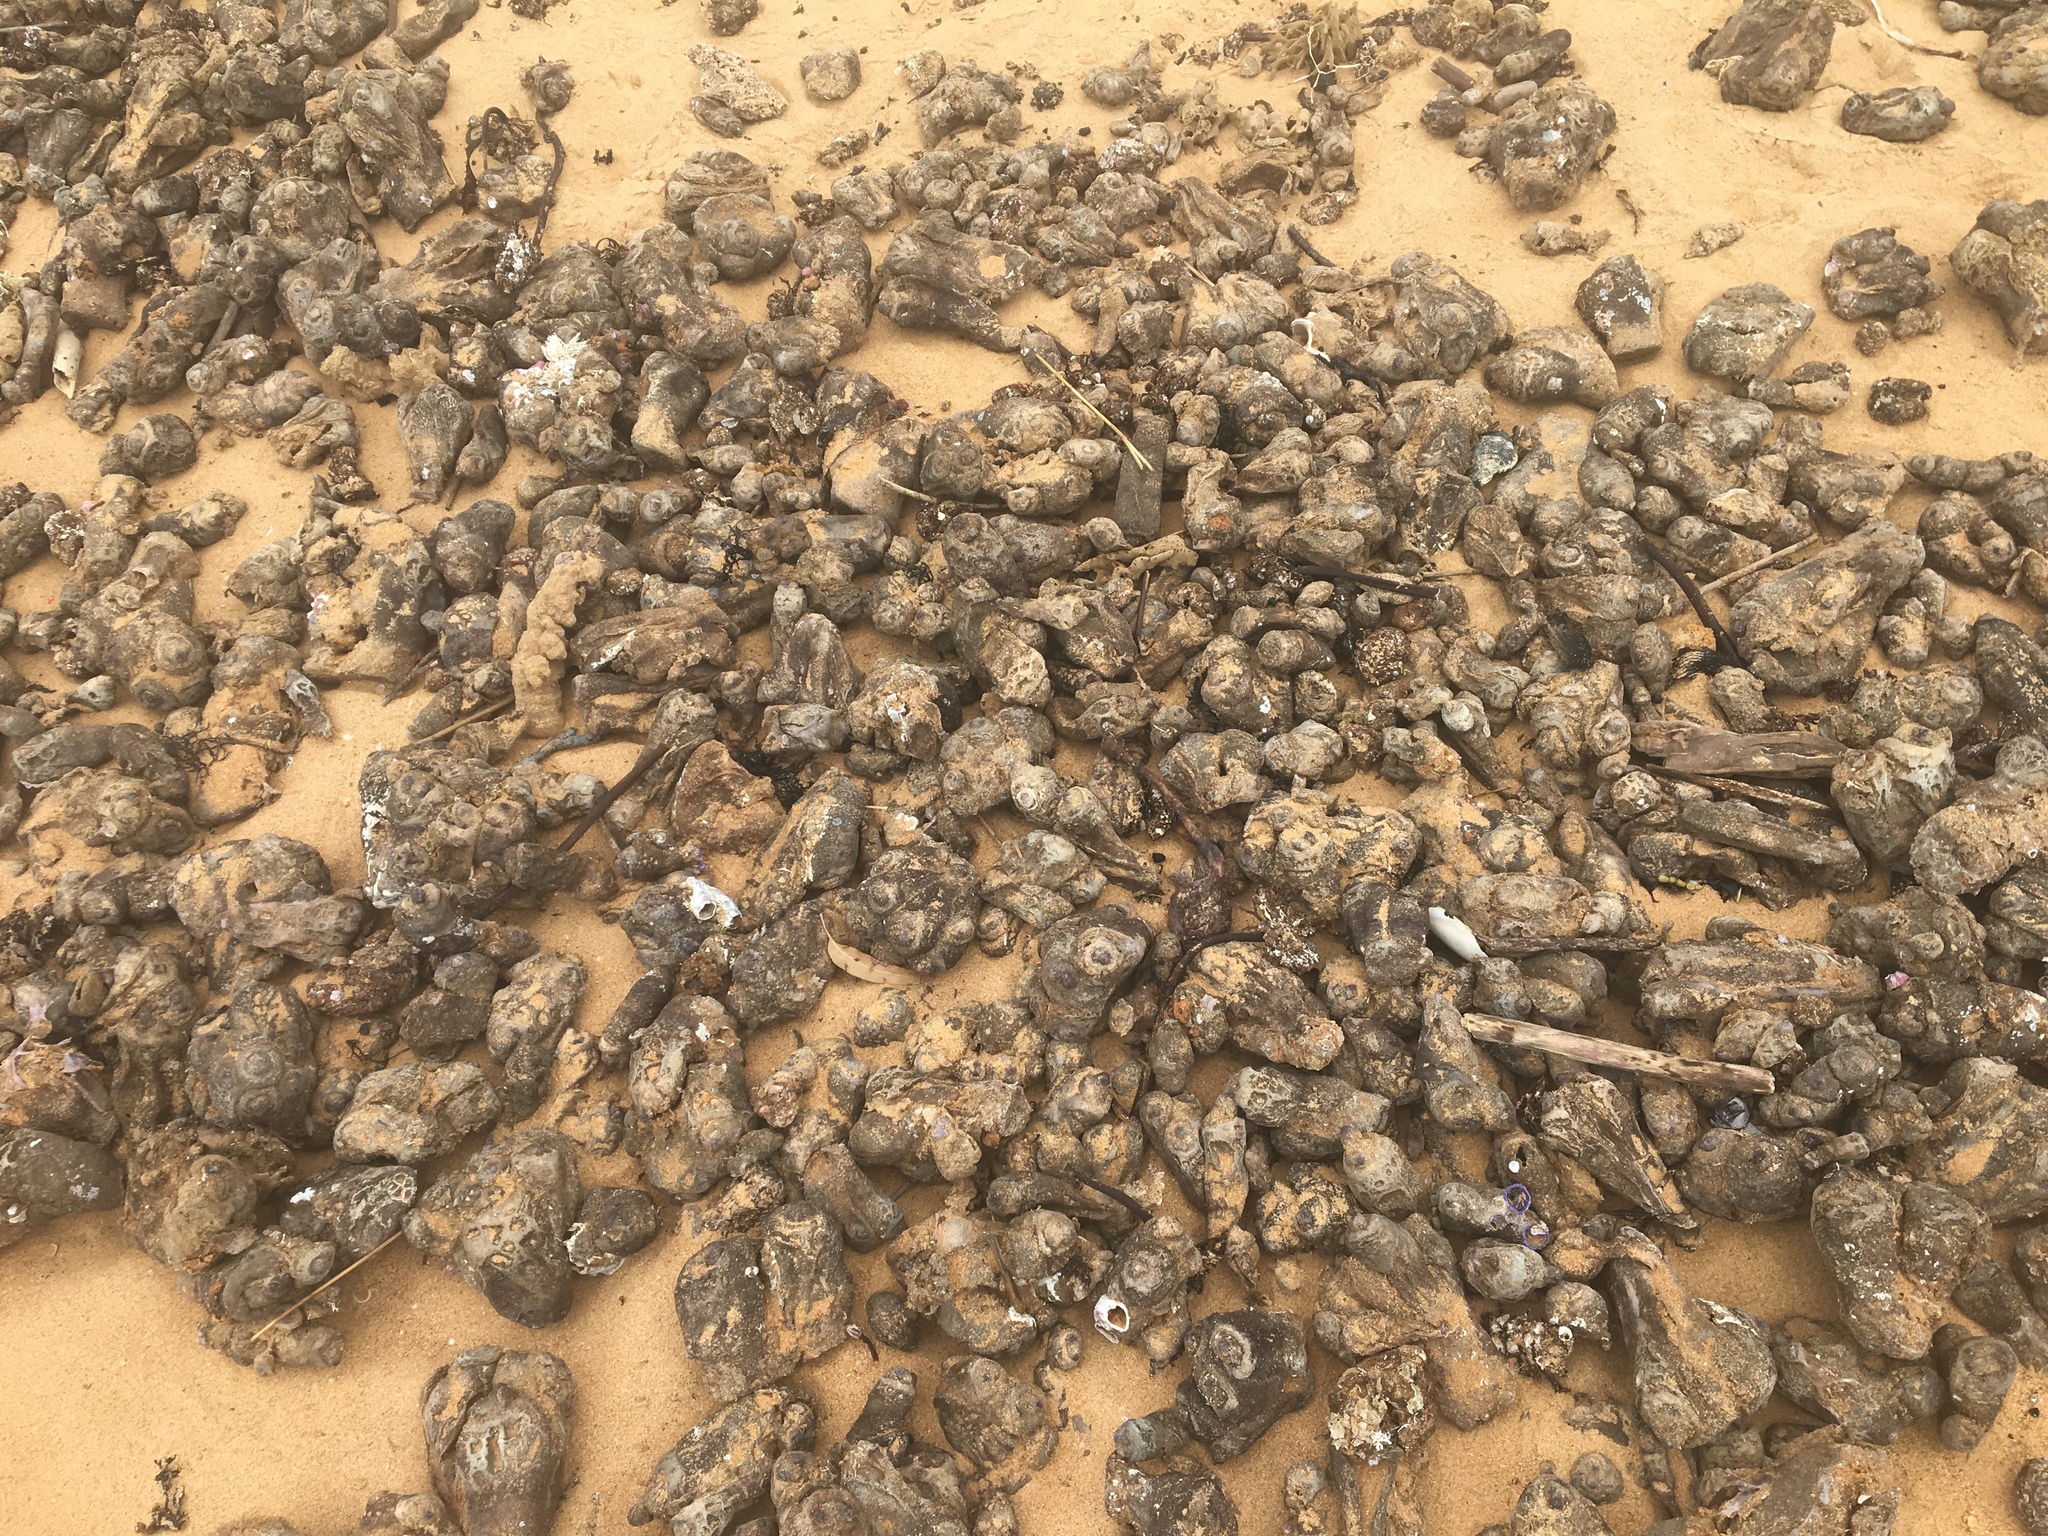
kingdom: Animalia
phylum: Chordata
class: Ascidiacea
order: Stolidobranchia
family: Pyuridae
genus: Pyura
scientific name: Pyura praeputialis
